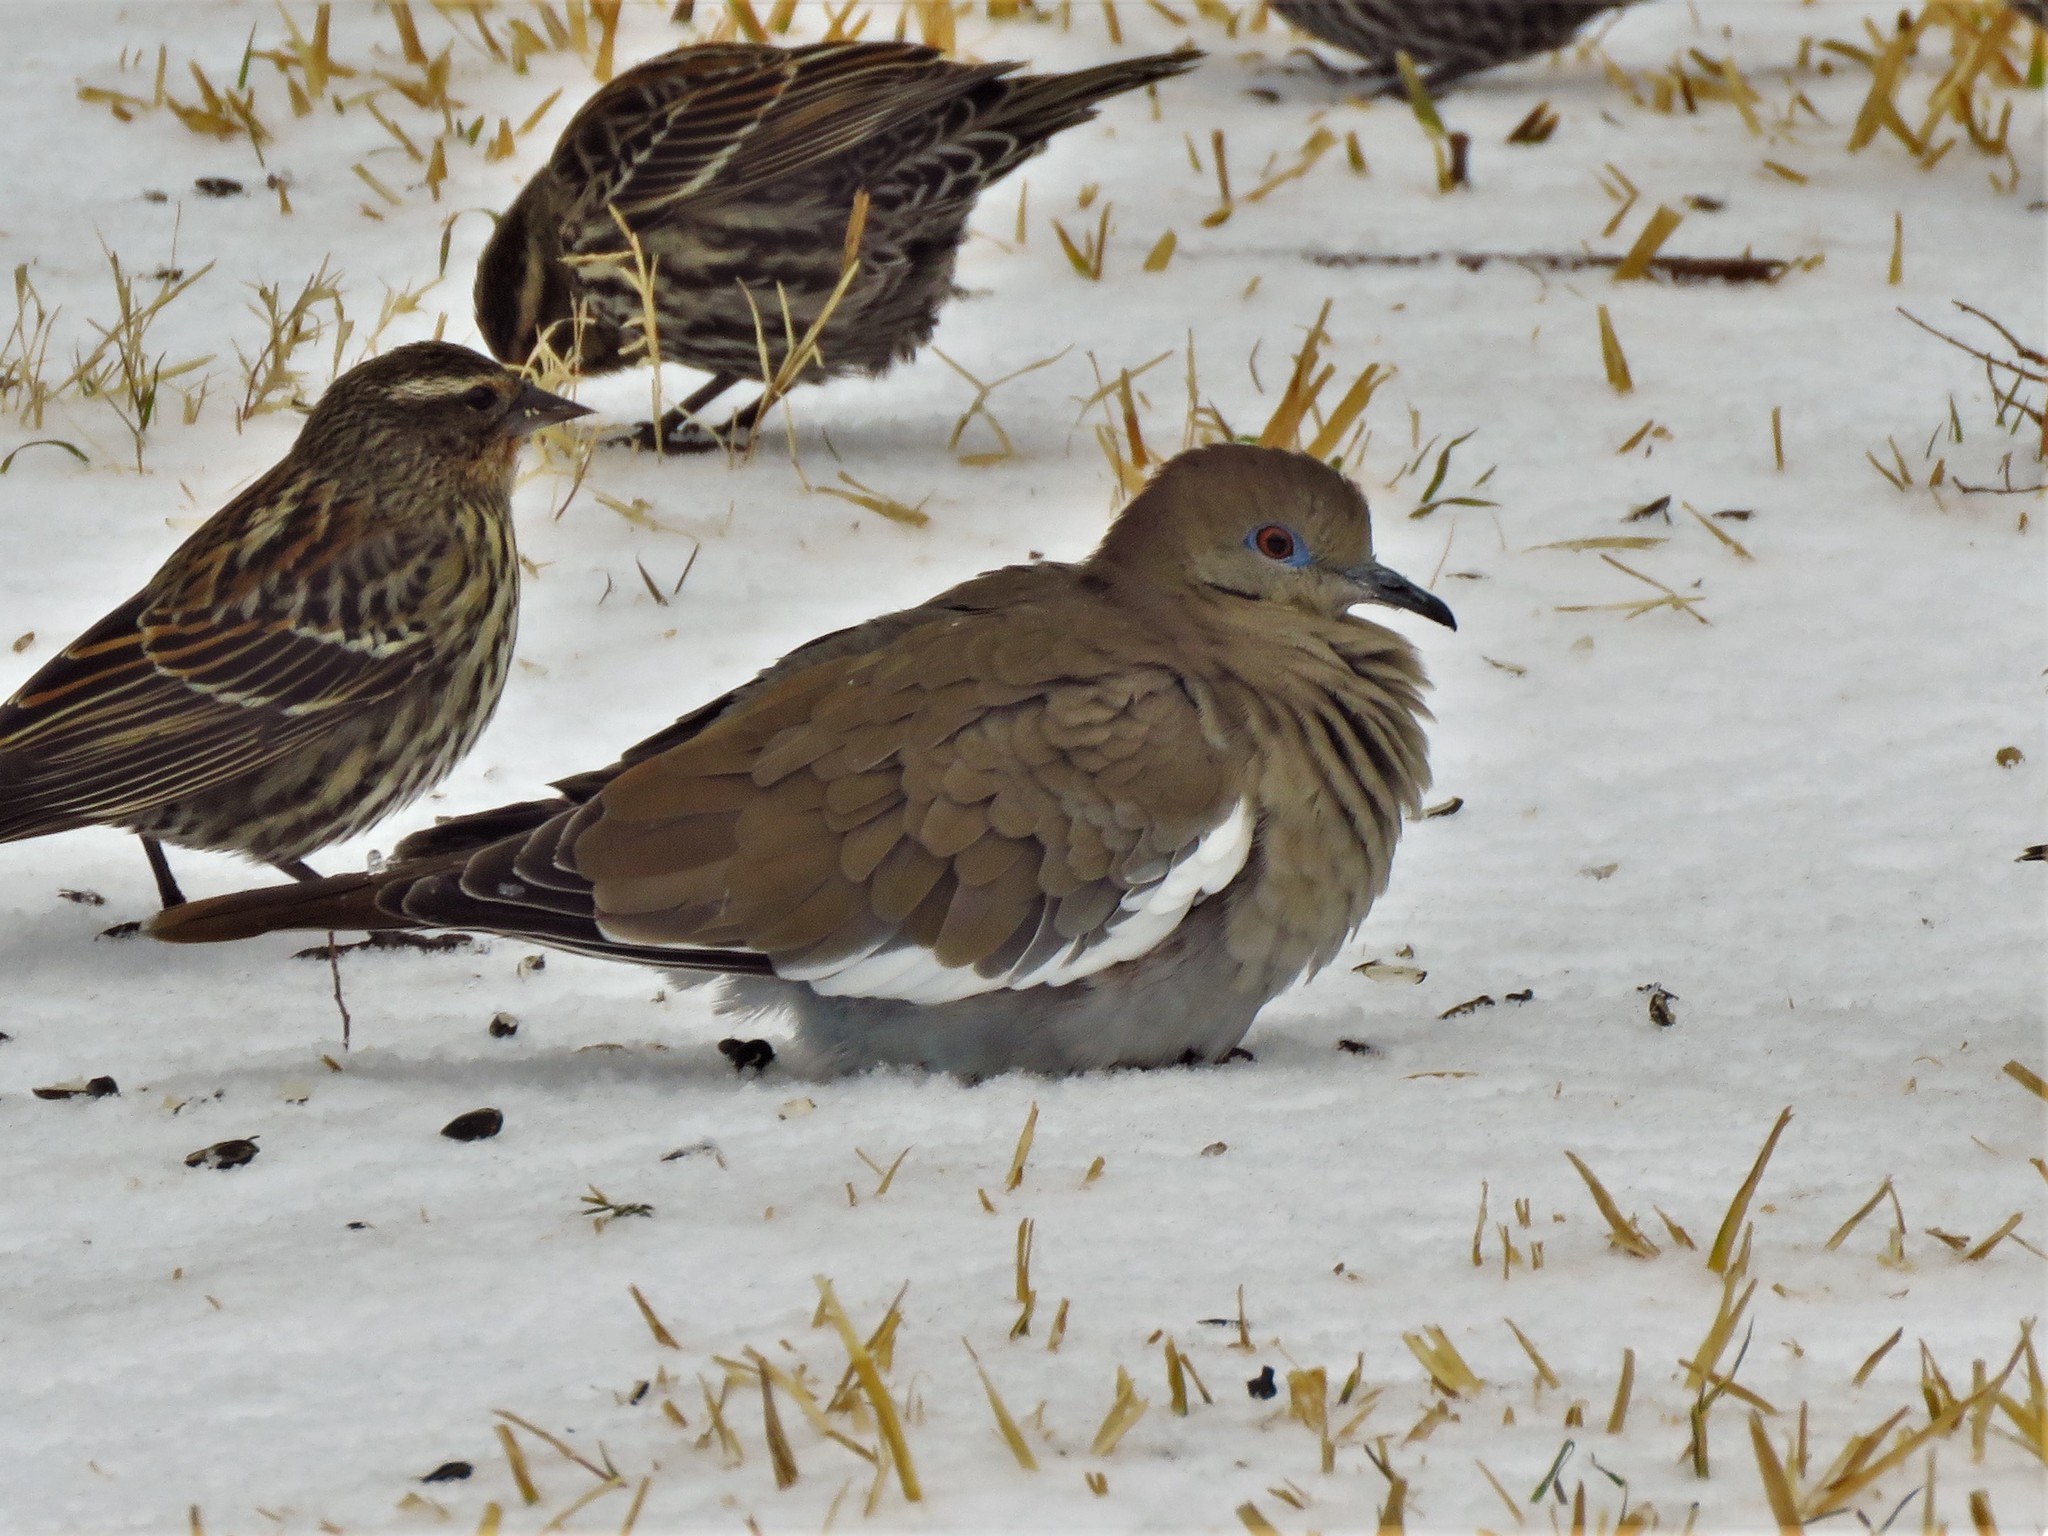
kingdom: Animalia
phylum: Chordata
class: Aves
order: Columbiformes
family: Columbidae
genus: Zenaida
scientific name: Zenaida asiatica
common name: White-winged dove
